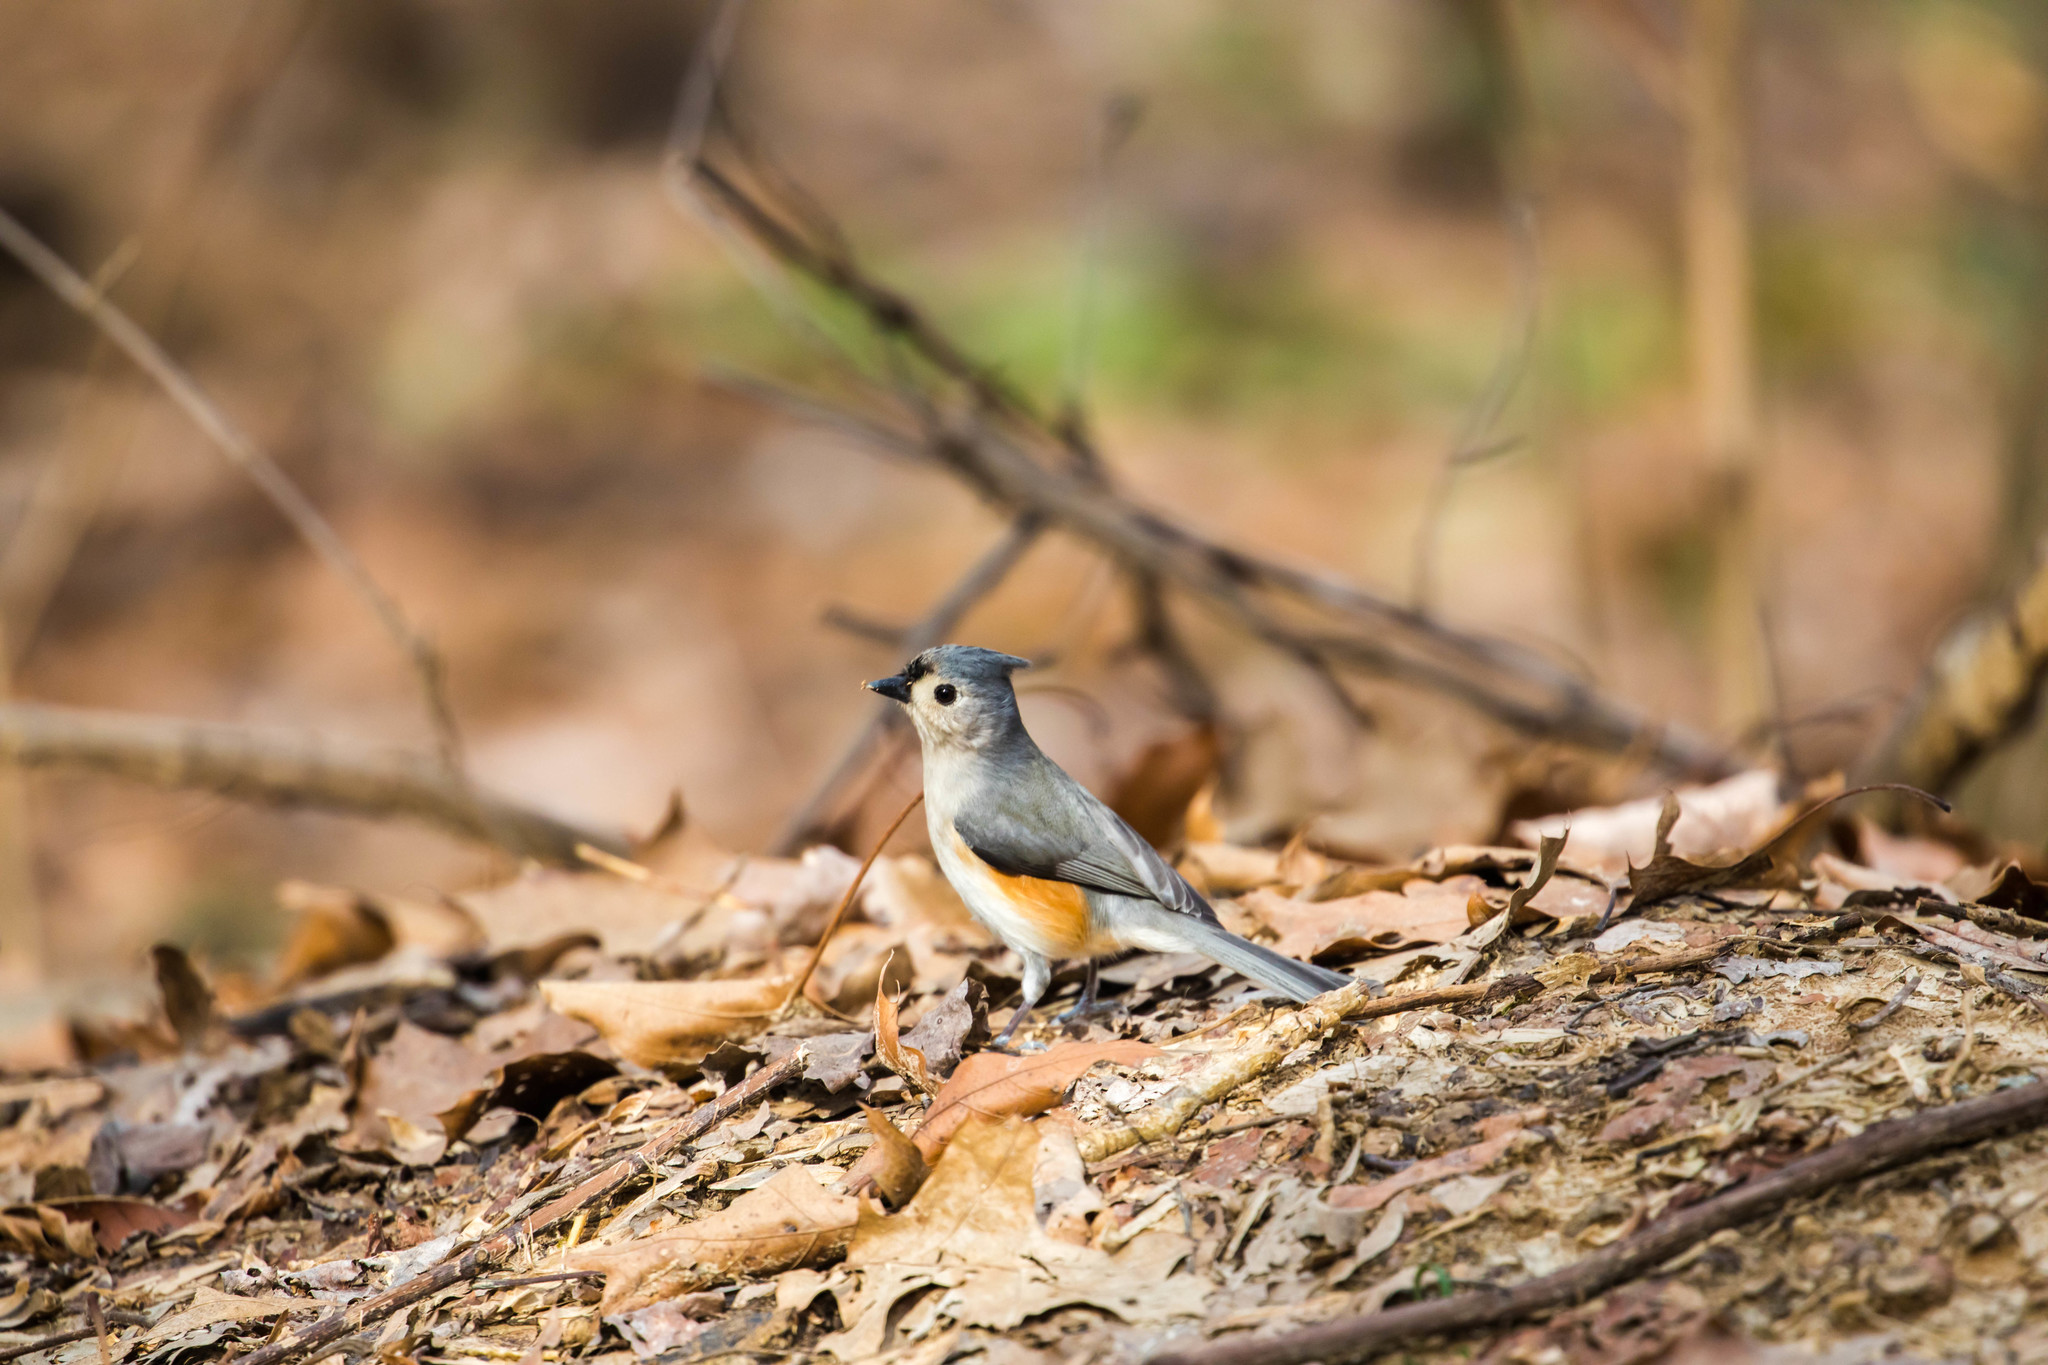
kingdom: Animalia
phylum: Chordata
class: Aves
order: Passeriformes
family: Paridae
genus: Baeolophus
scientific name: Baeolophus bicolor
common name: Tufted titmouse
